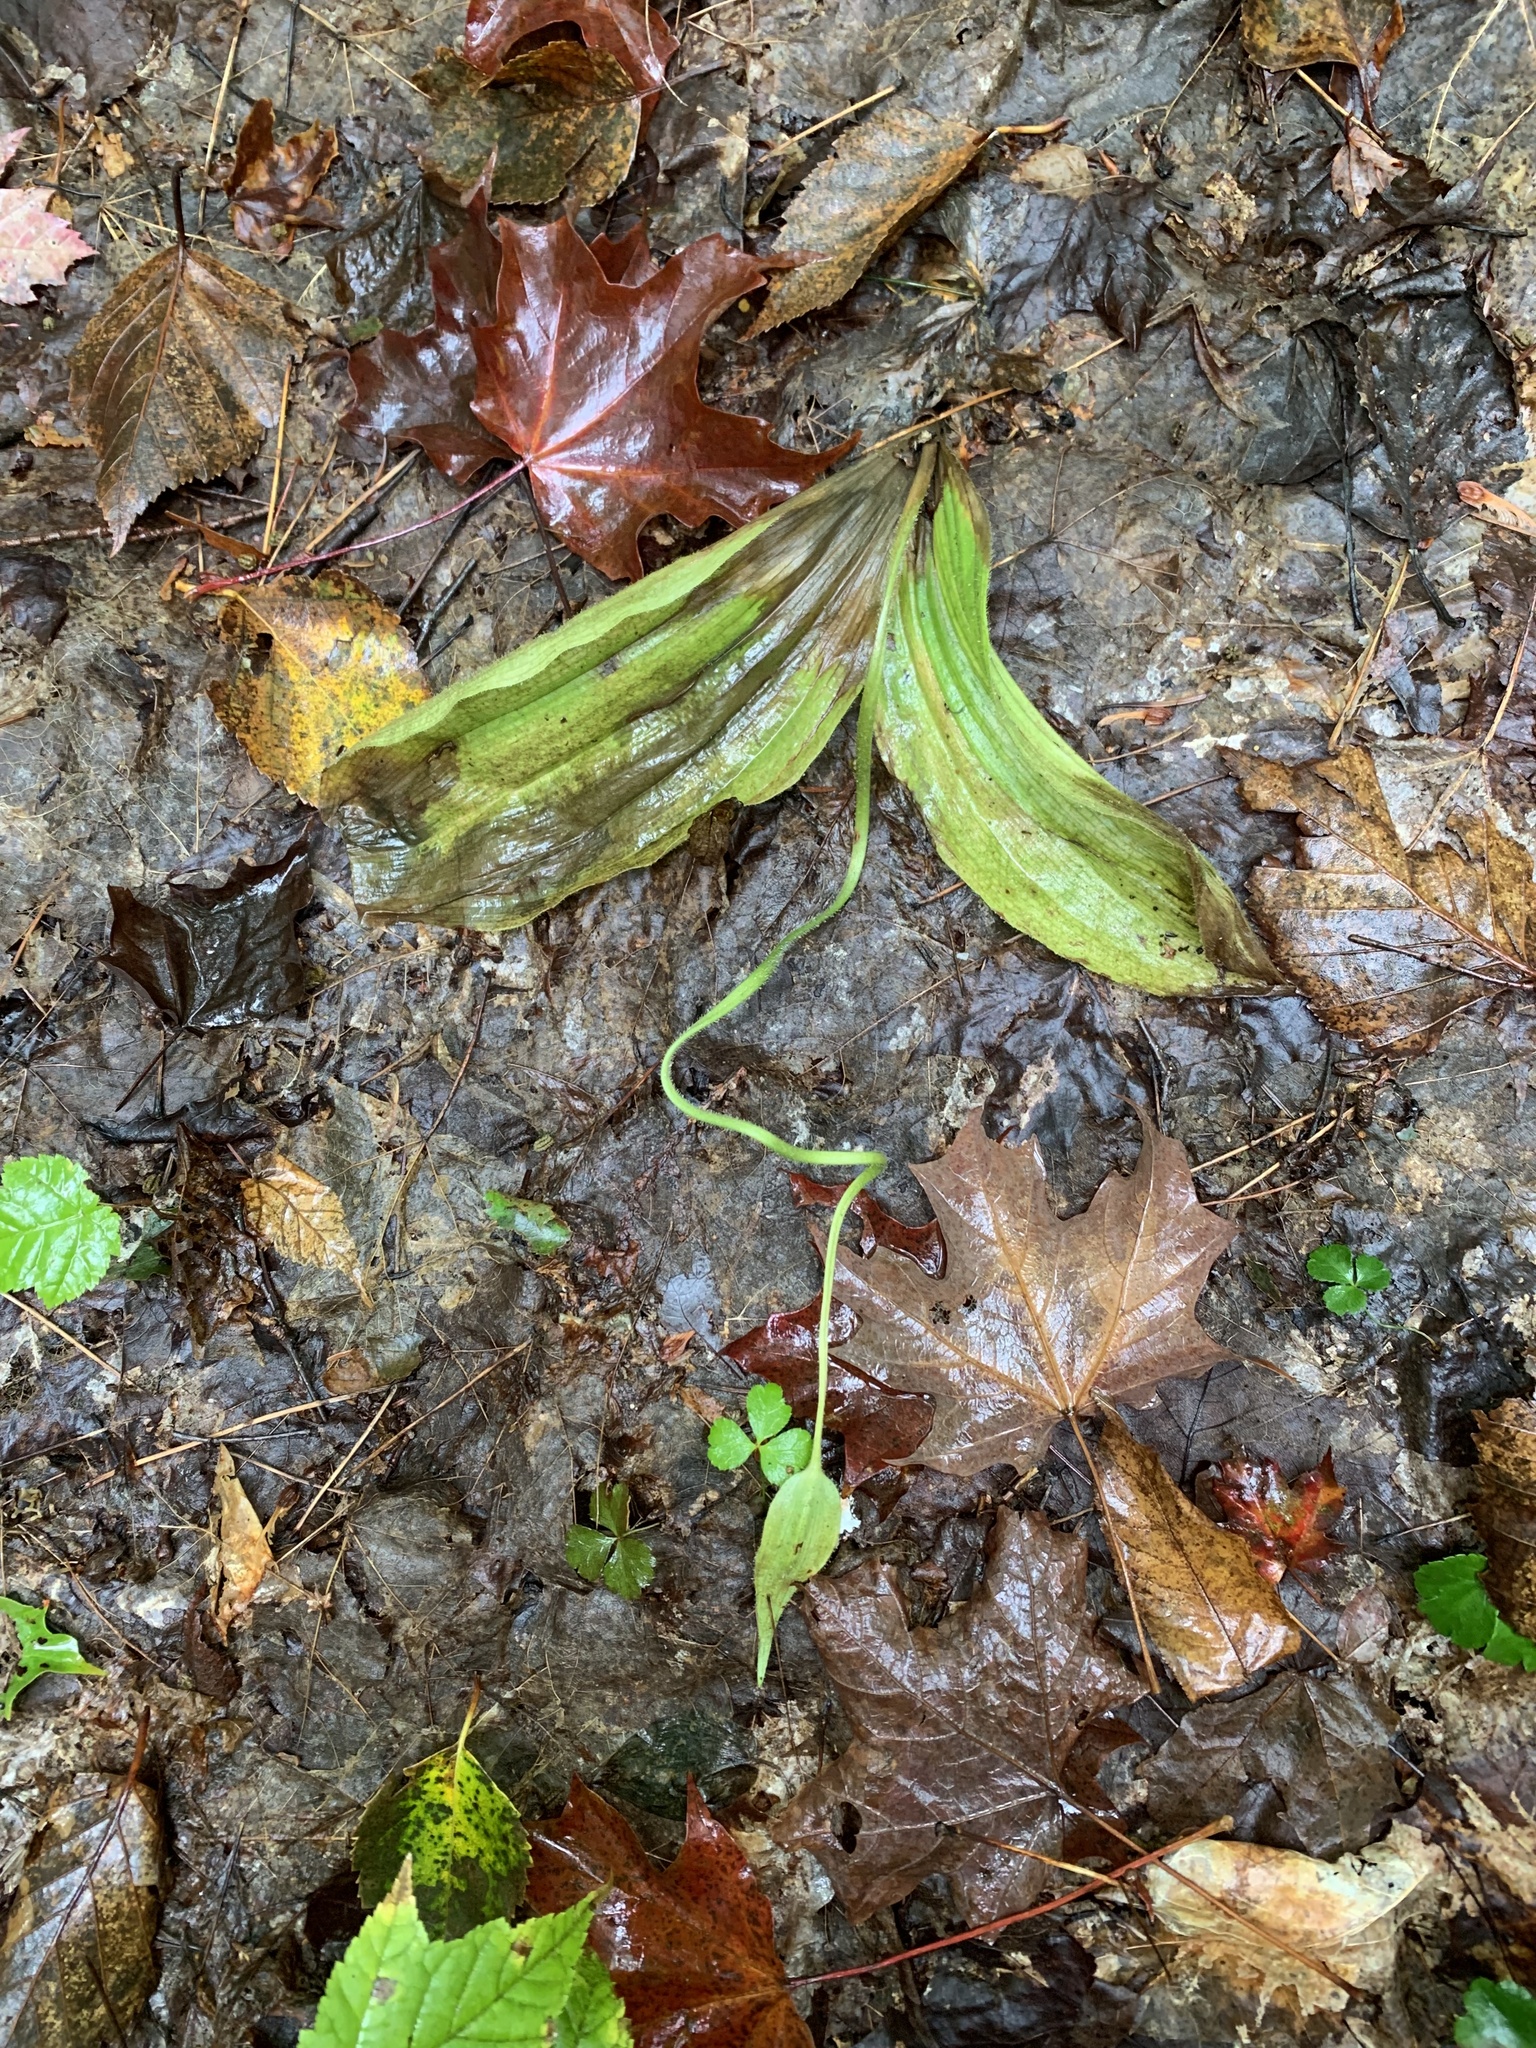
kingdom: Plantae
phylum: Tracheophyta
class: Liliopsida
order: Asparagales
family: Orchidaceae
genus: Cypripedium
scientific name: Cypripedium acaule
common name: Pink lady's-slipper
